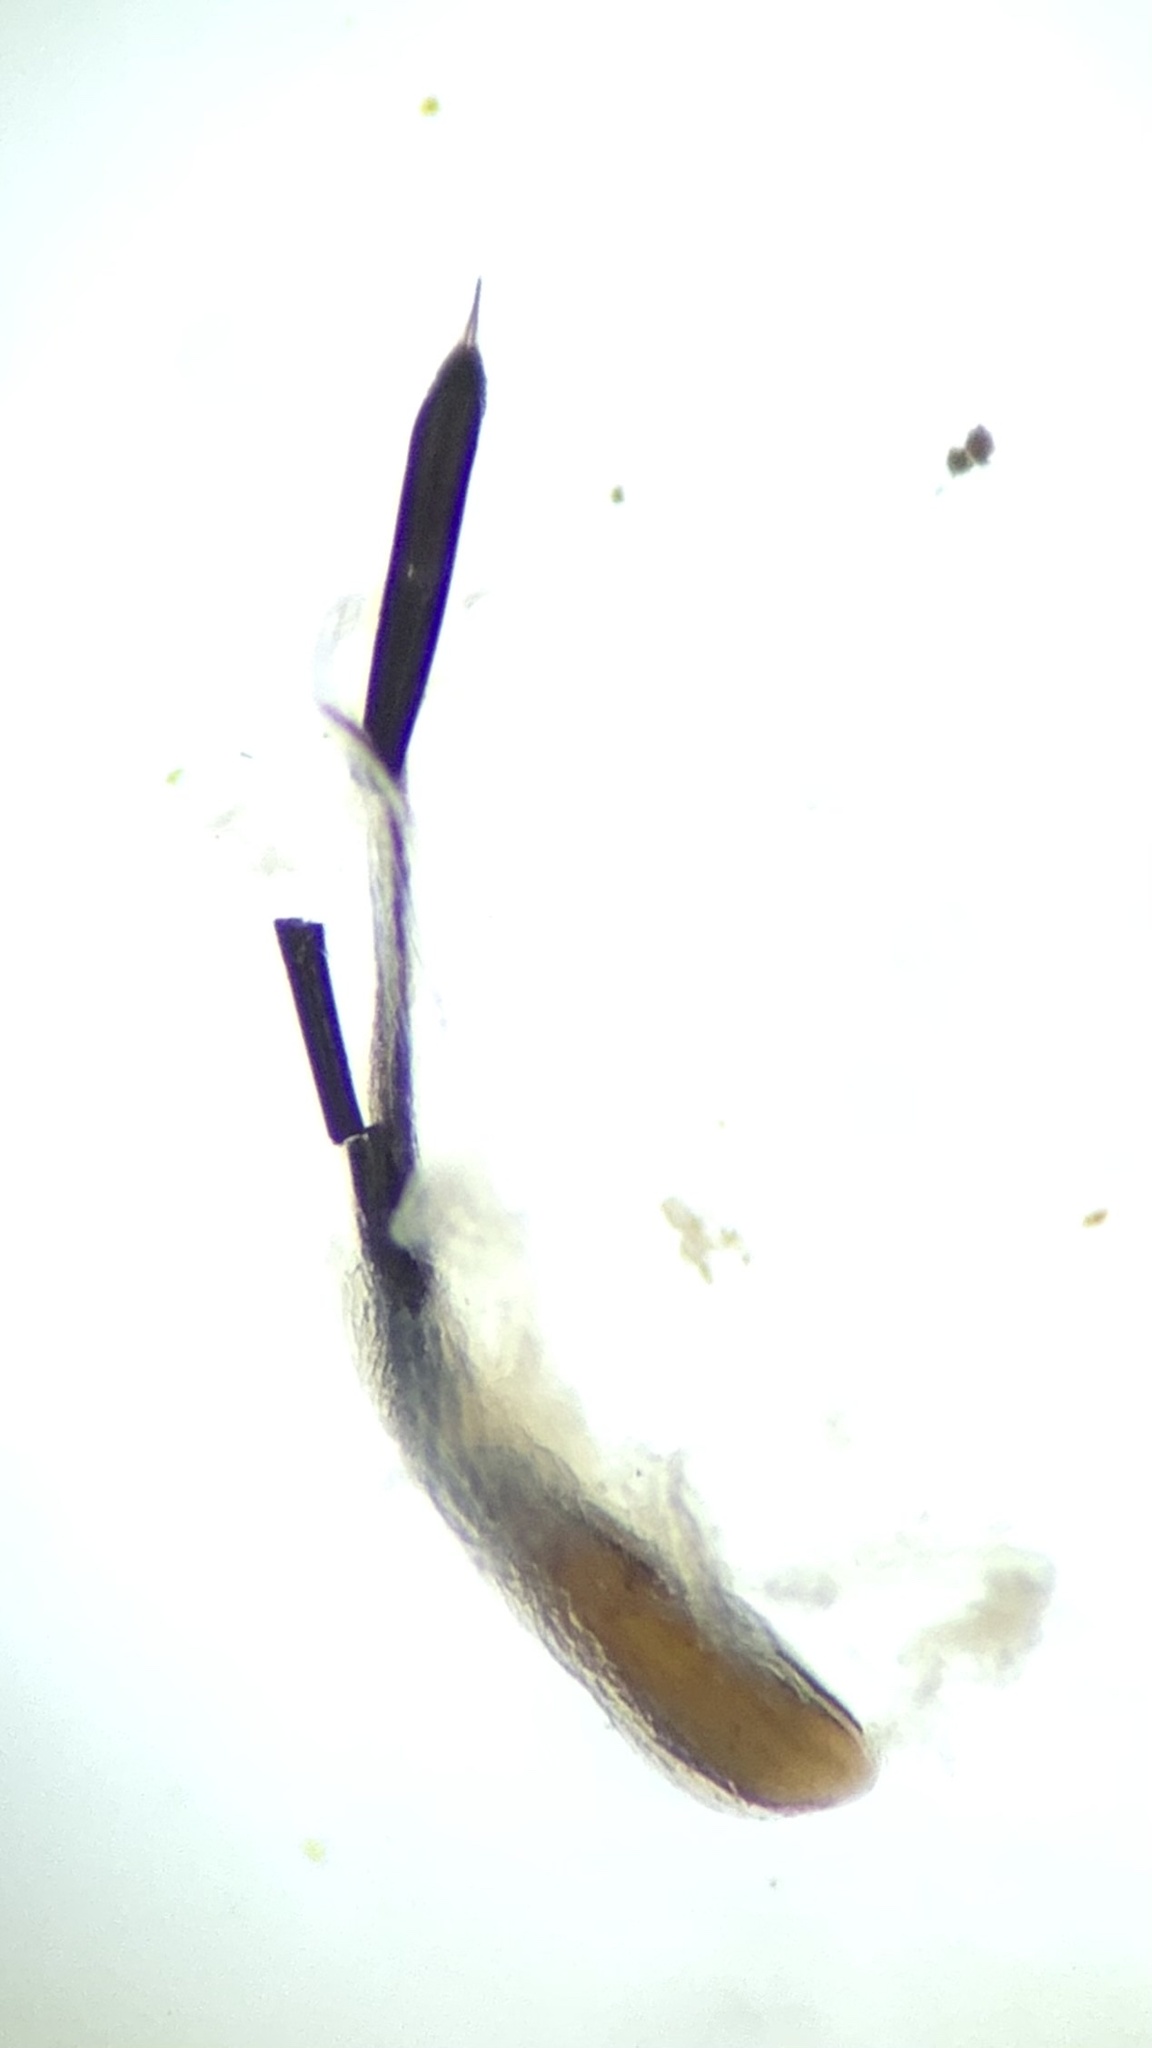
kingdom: Animalia
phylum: Arthropoda
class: Arachnida
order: Opiliones
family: Nemastomatidae
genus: Nemastoma
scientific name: Nemastoma bimaculatum
